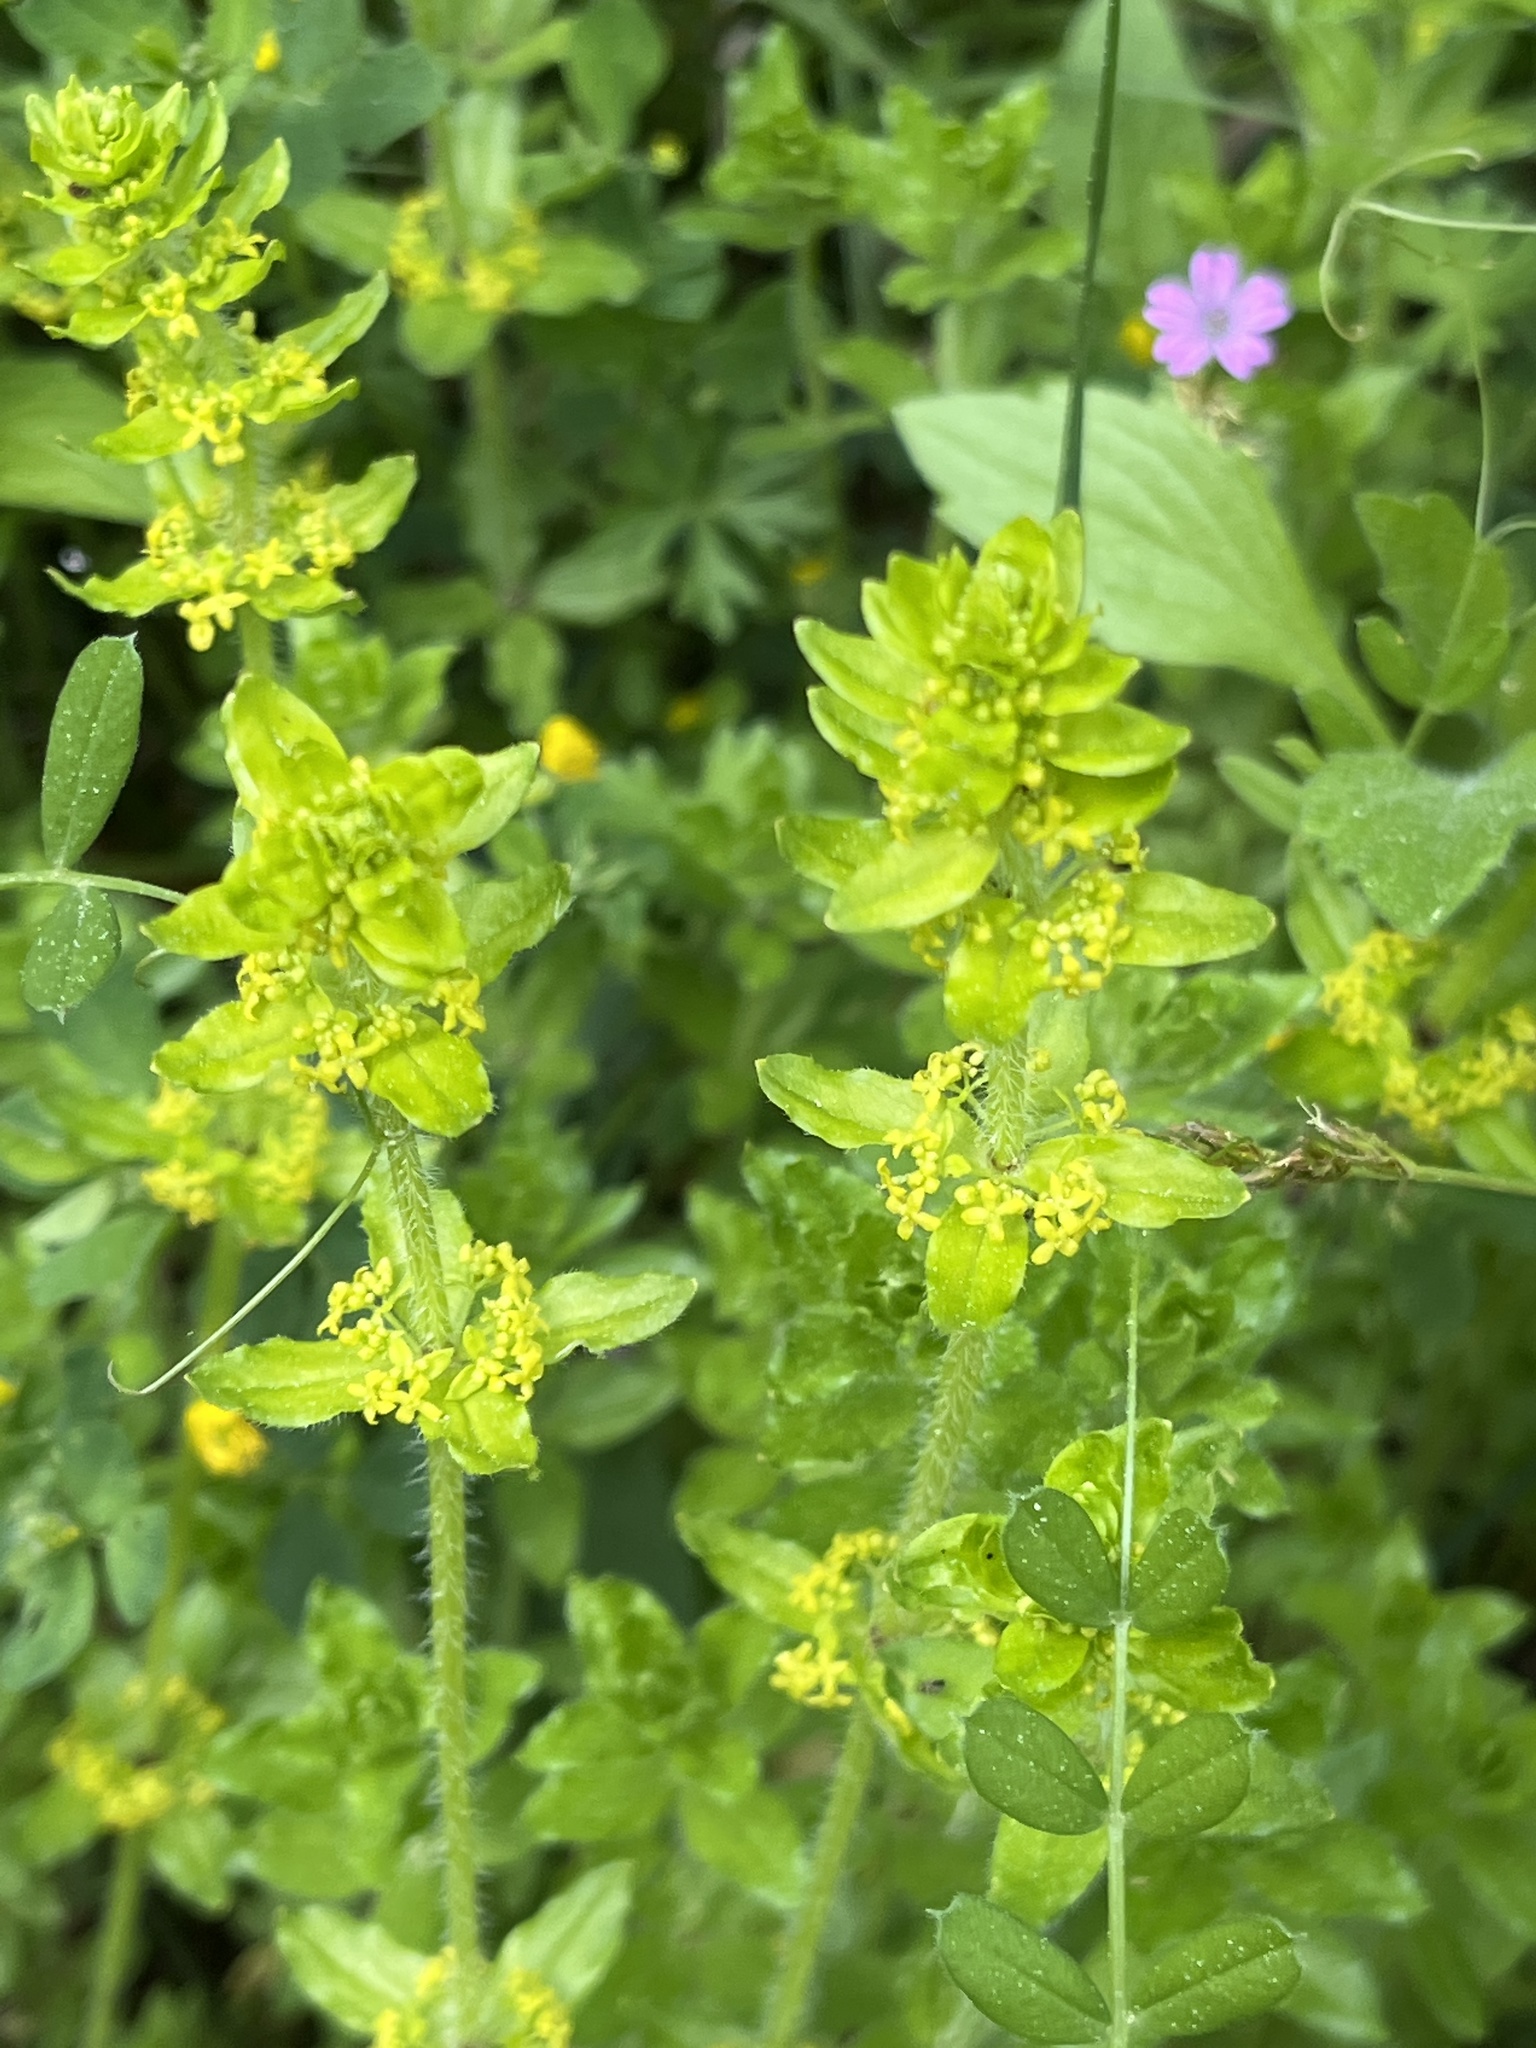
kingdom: Plantae
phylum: Tracheophyta
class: Magnoliopsida
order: Gentianales
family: Rubiaceae
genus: Cruciata
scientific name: Cruciata laevipes
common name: Crosswort
